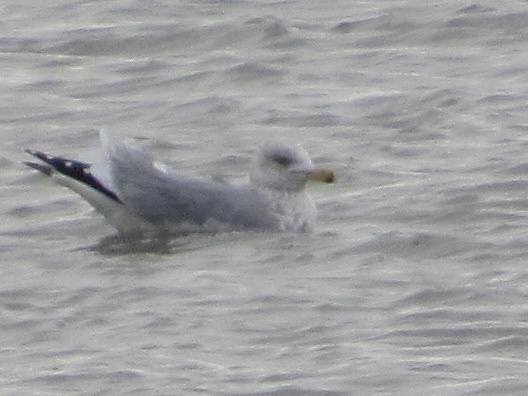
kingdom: Animalia
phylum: Chordata
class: Aves
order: Charadriiformes
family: Laridae
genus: Larus
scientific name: Larus delawarensis
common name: Ring-billed gull
